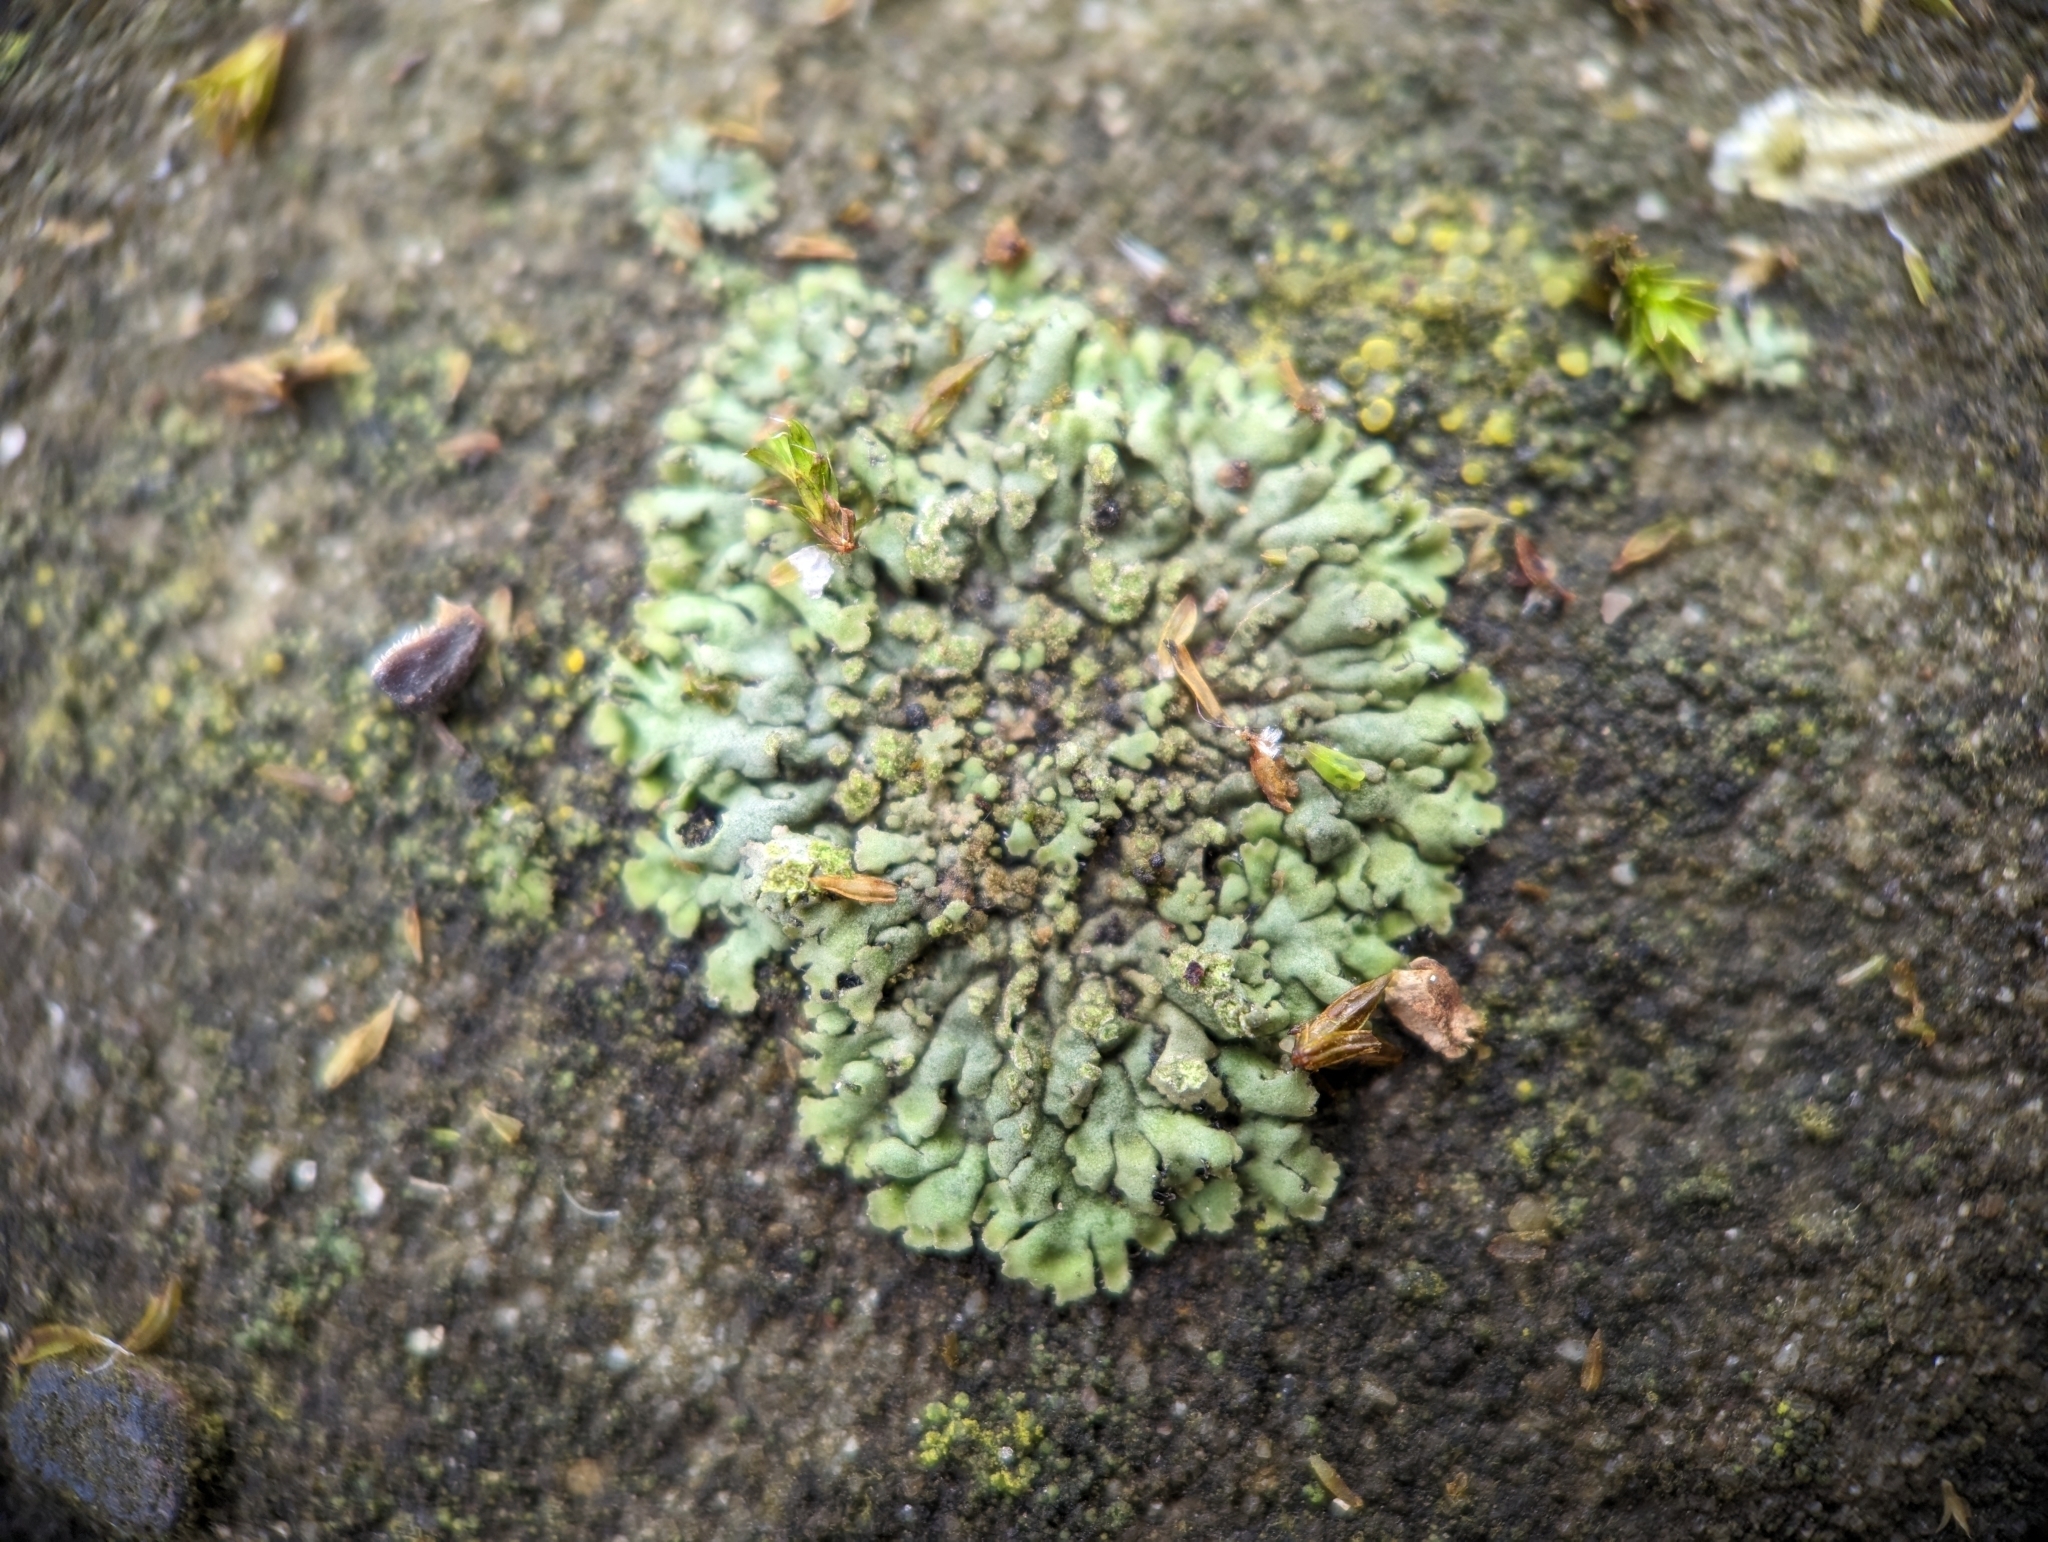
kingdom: Fungi
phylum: Ascomycota
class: Lecanoromycetes
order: Caliciales
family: Physciaceae
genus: Phaeophyscia
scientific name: Phaeophyscia orbicularis
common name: Mealy shadow lichen
